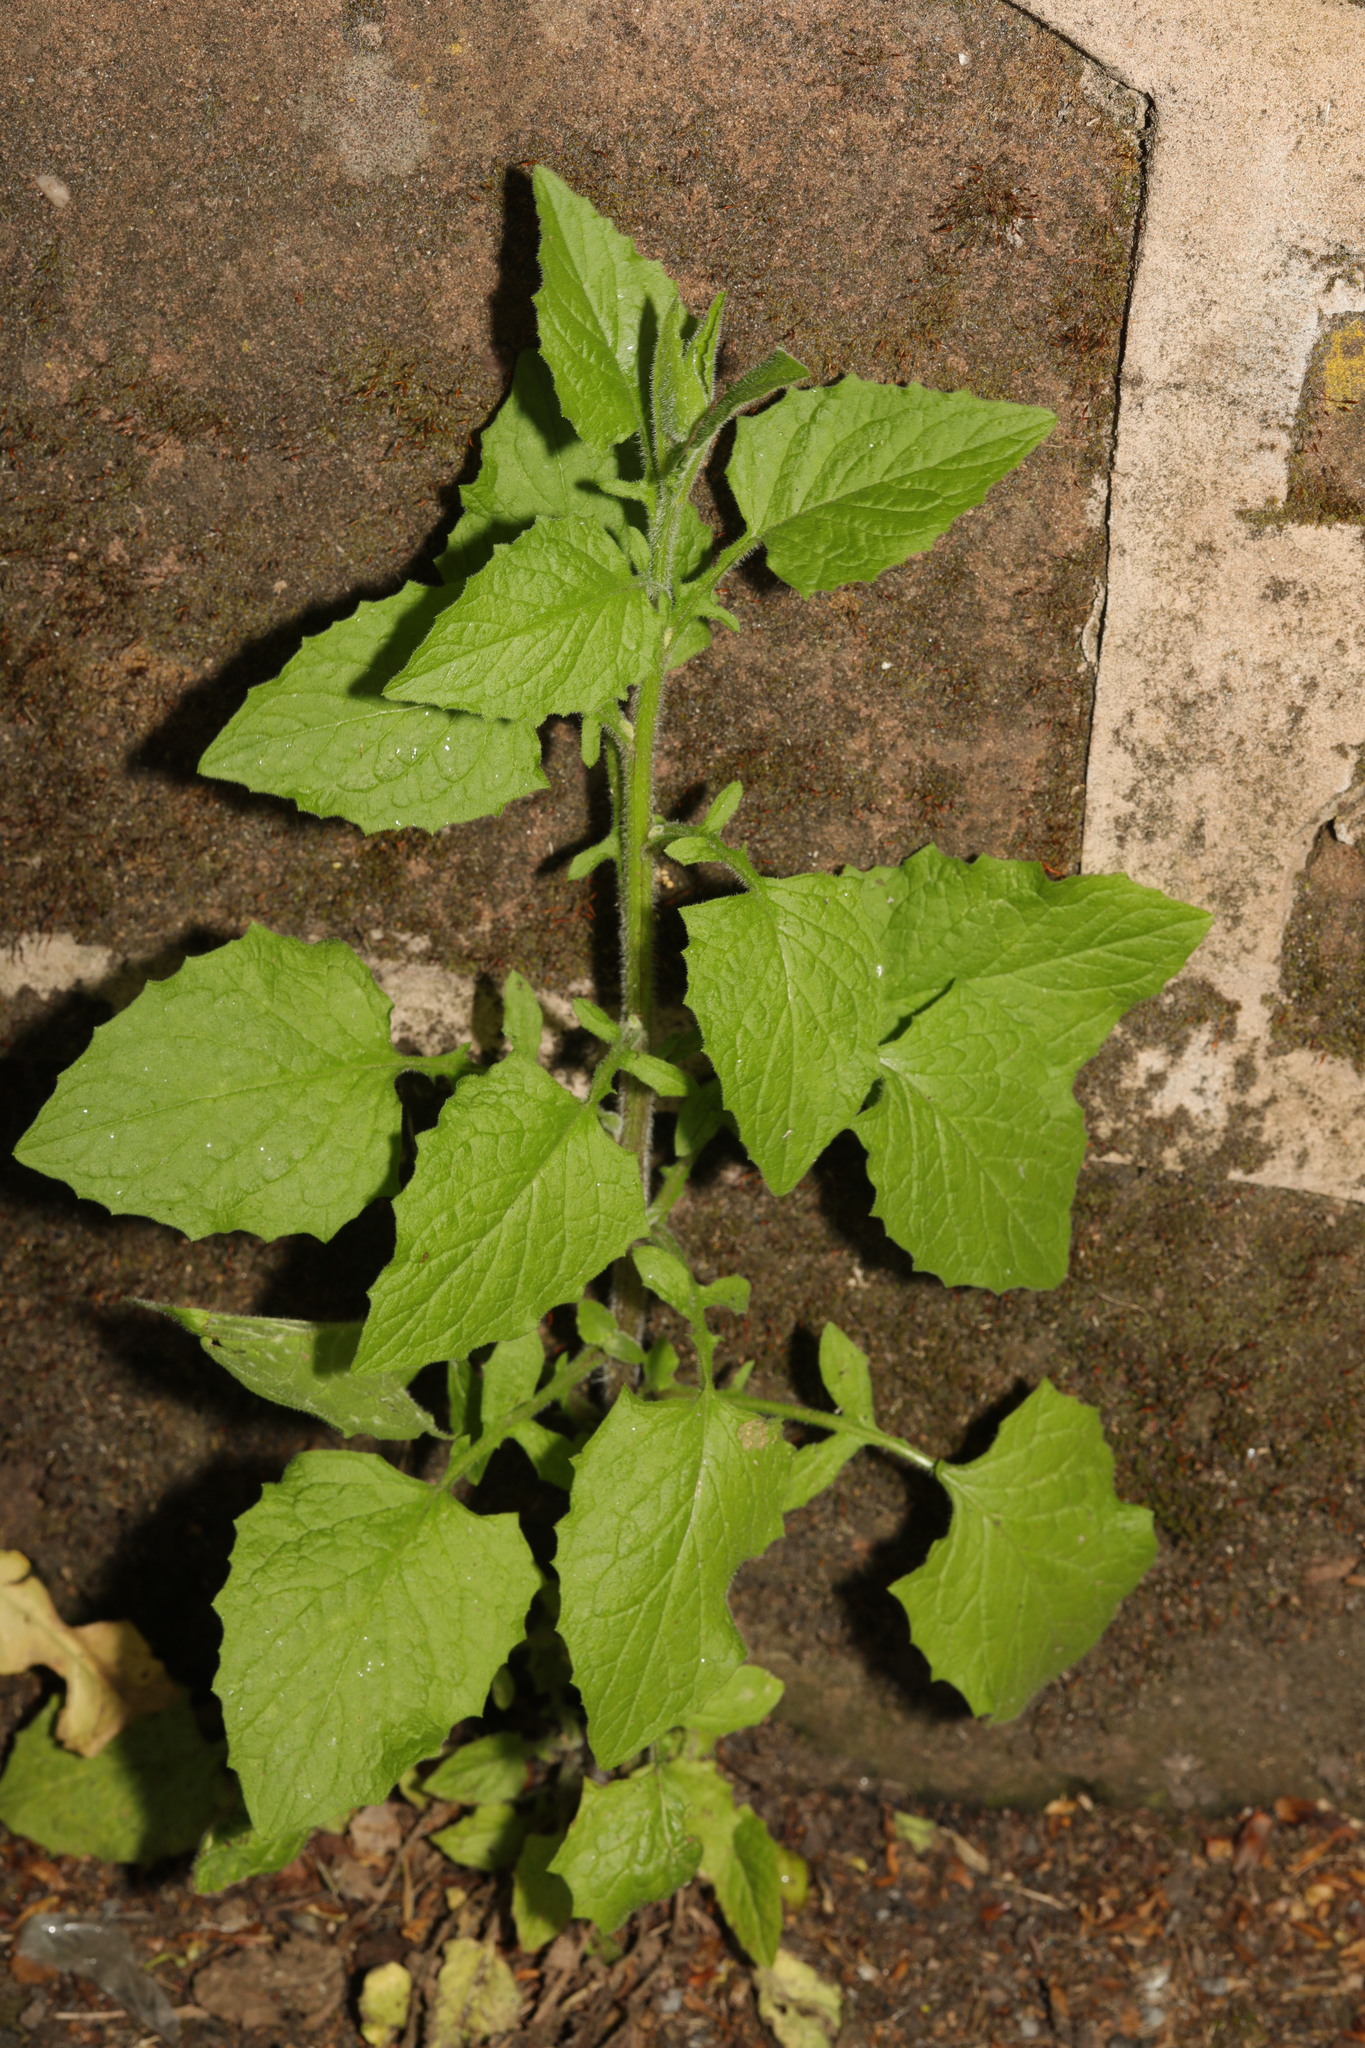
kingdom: Plantae
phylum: Tracheophyta
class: Magnoliopsida
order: Asterales
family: Asteraceae
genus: Lapsana
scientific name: Lapsana communis
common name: Nipplewort
